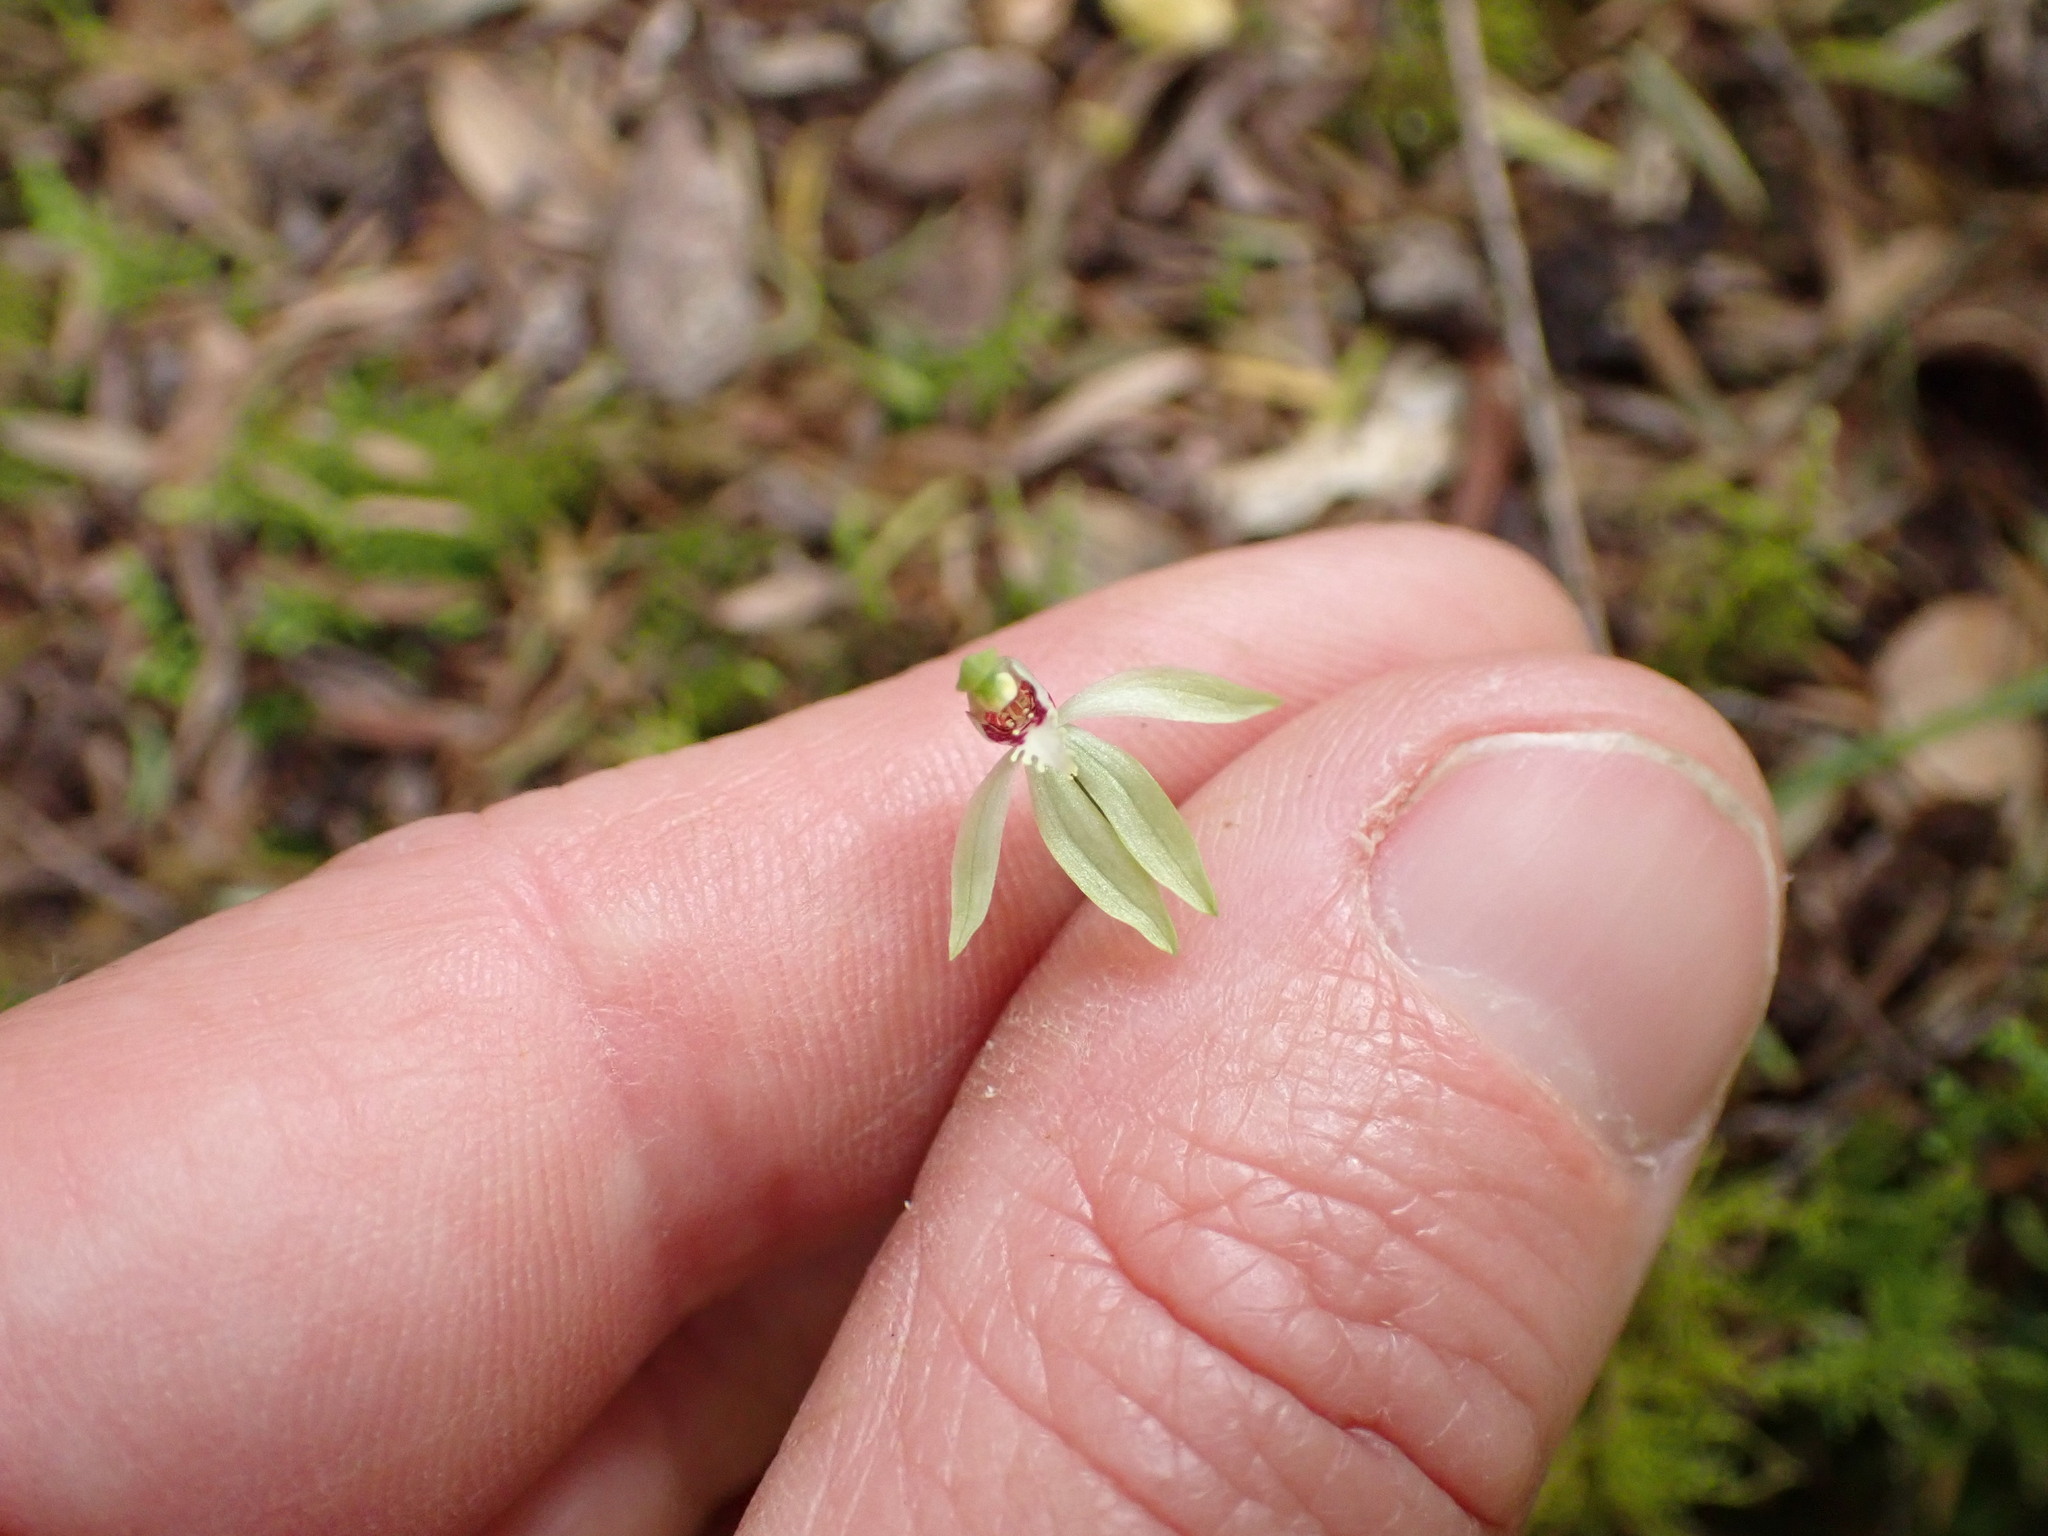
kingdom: Plantae
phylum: Tracheophyta
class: Liliopsida
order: Asparagales
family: Orchidaceae
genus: Caladenia
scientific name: Caladenia chlorostyla
